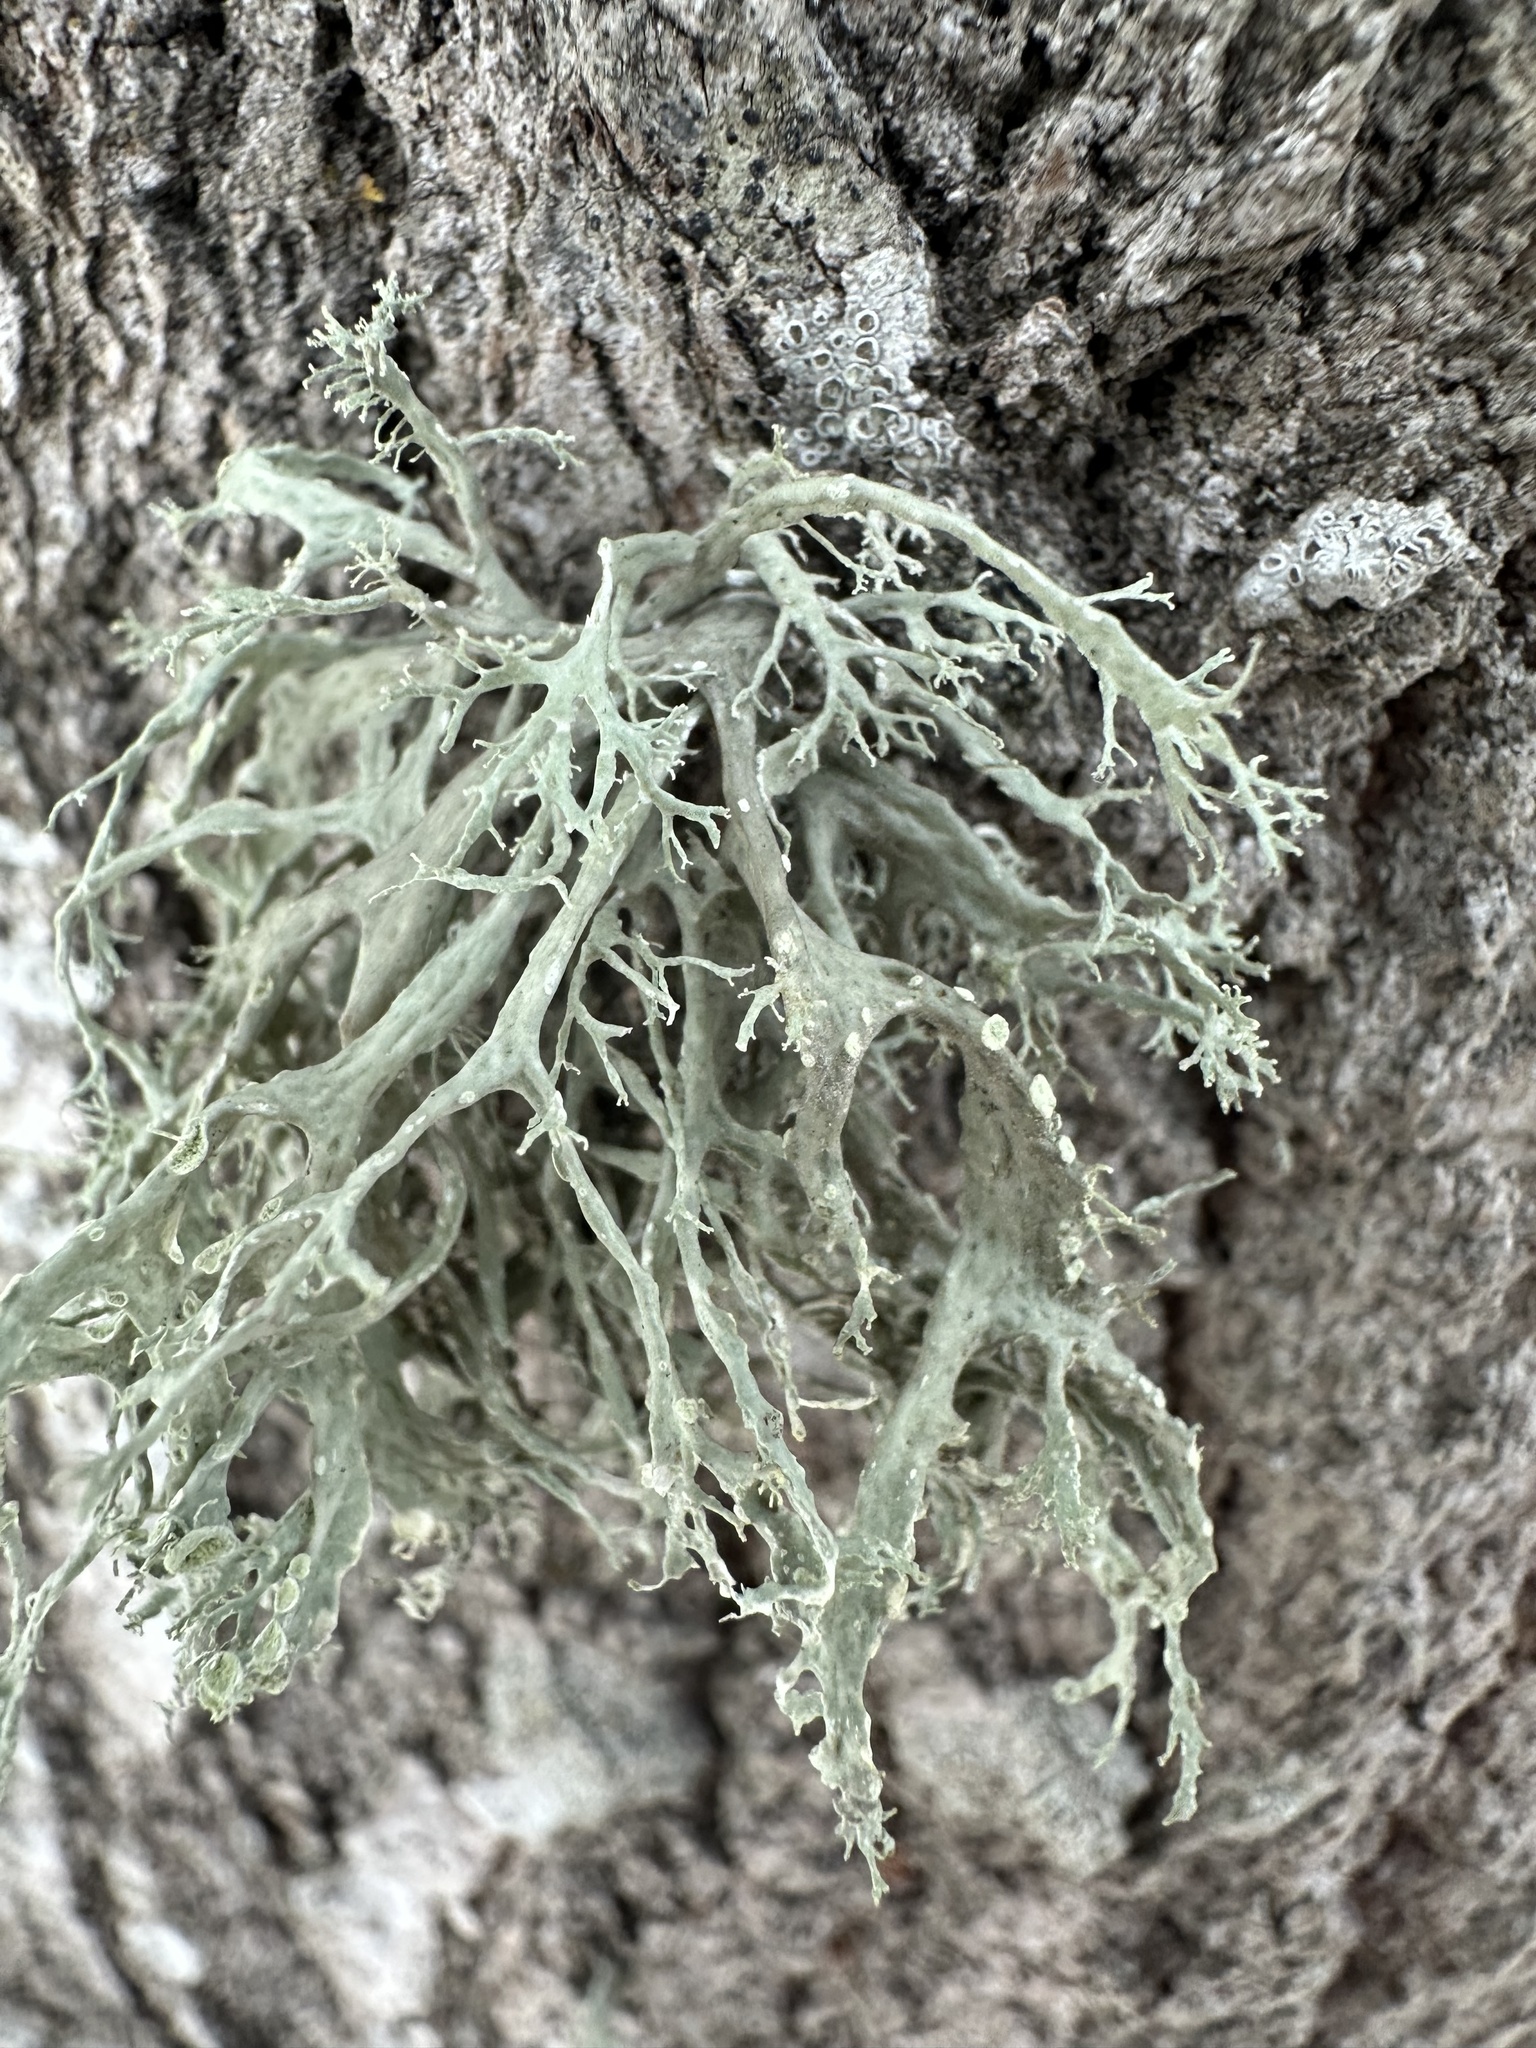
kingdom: Fungi
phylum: Ascomycota
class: Lecanoromycetes
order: Lecanorales
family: Ramalinaceae
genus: Ramalina
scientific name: Ramalina farinacea
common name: Farinose cartilage lichen
